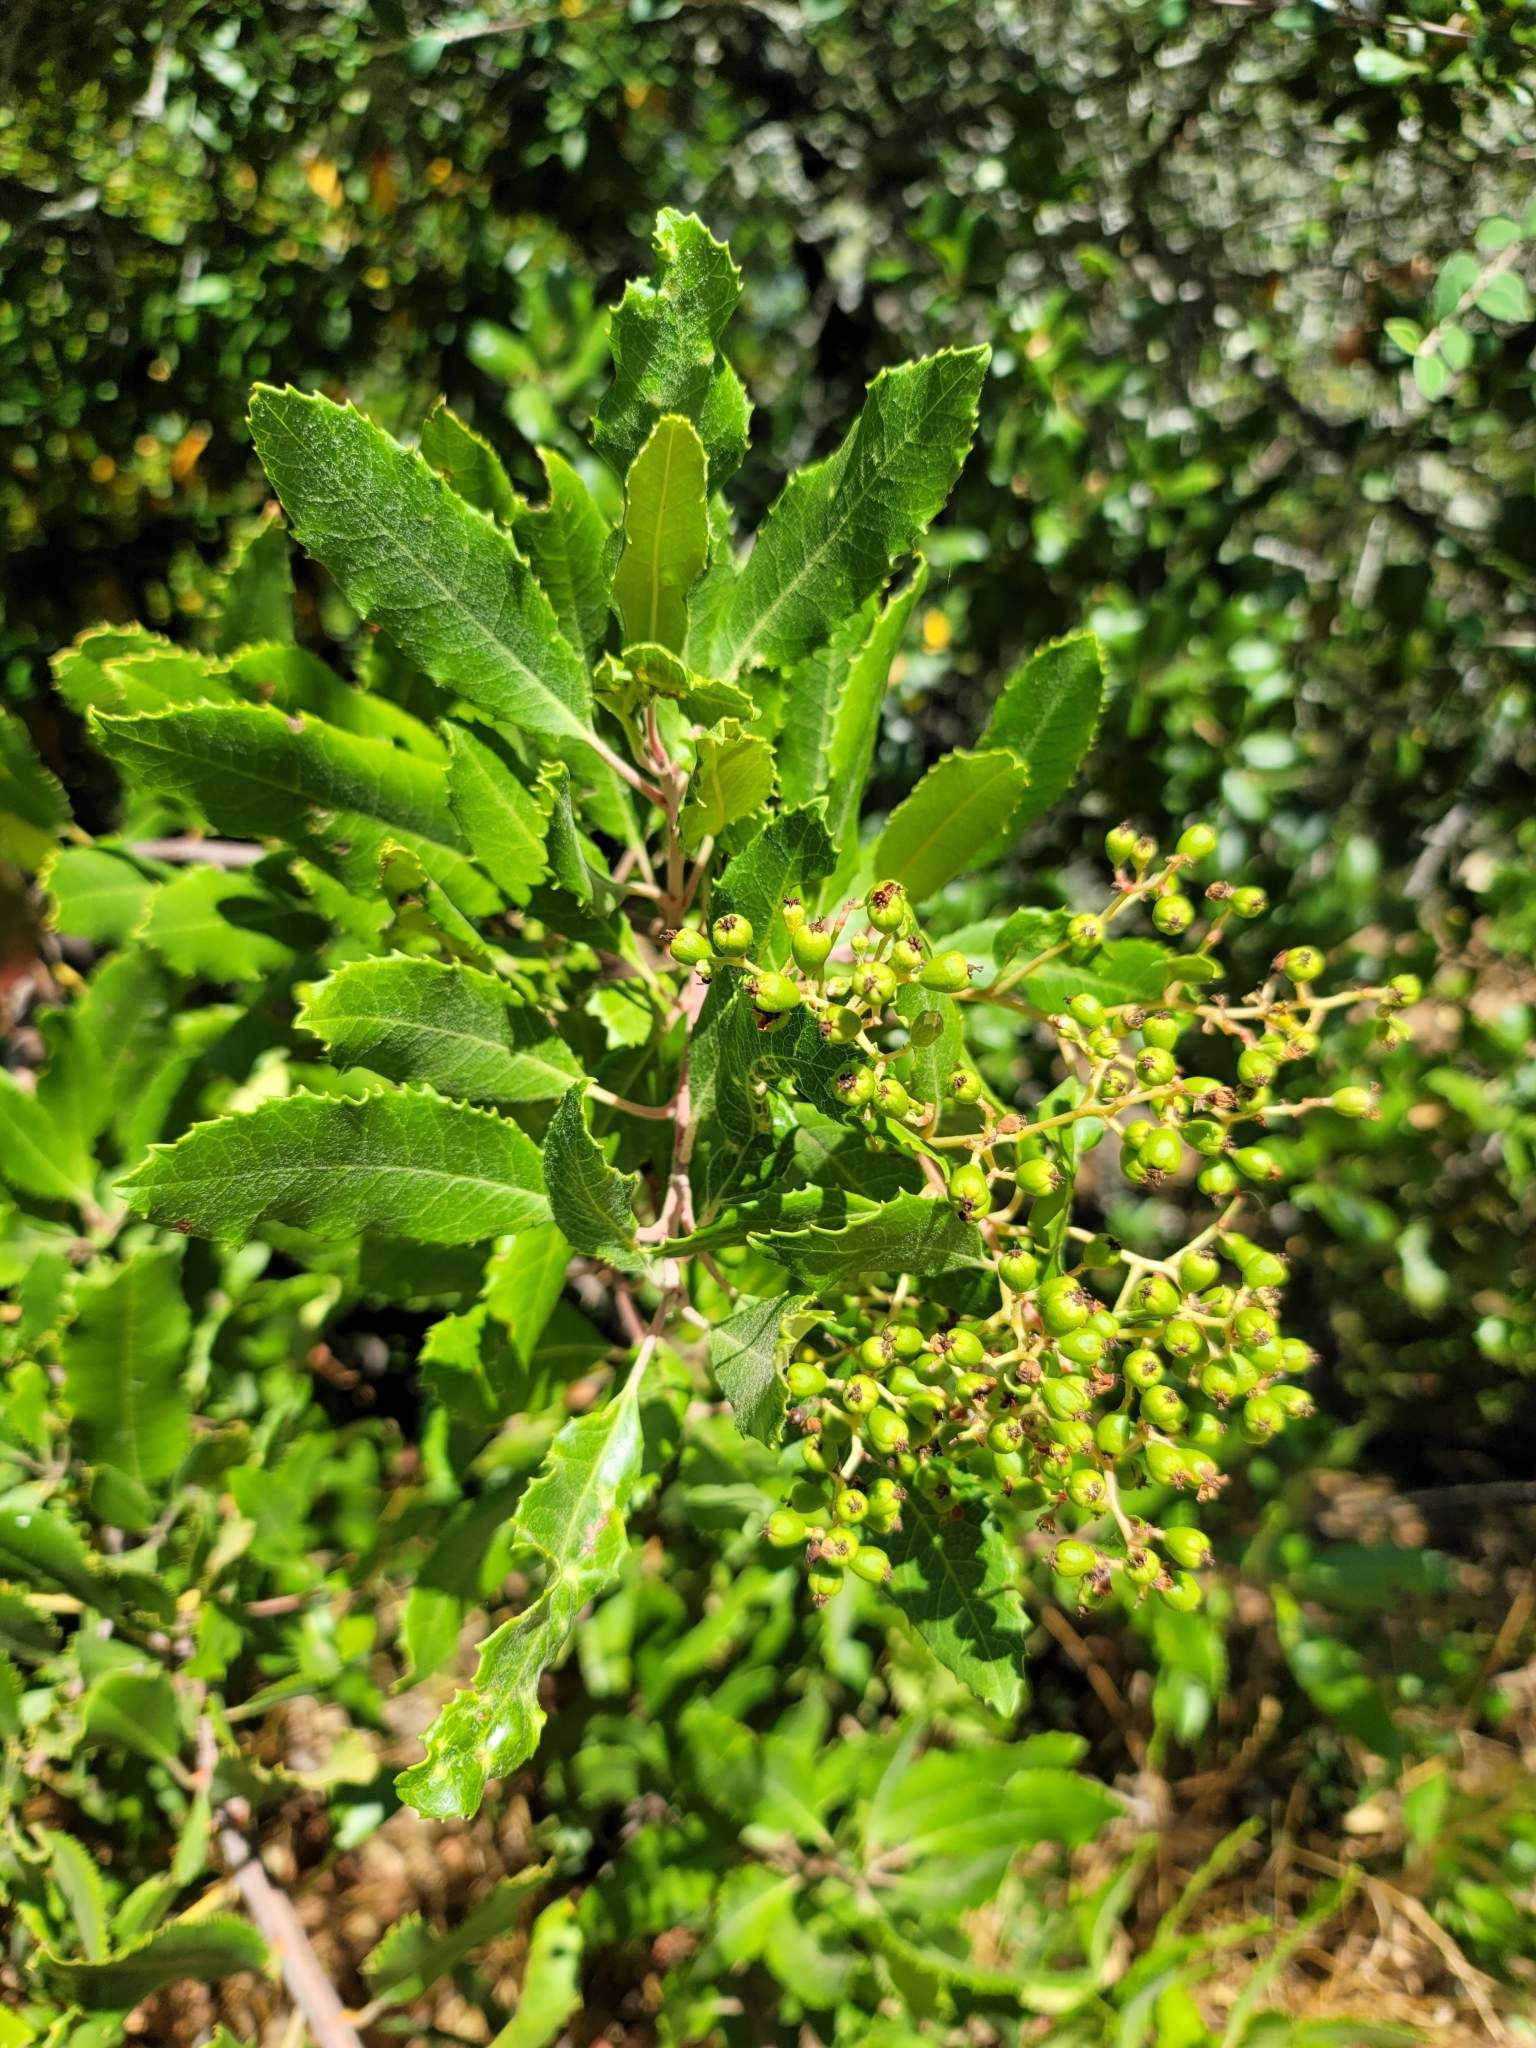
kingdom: Plantae
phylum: Tracheophyta
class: Magnoliopsida
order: Rosales
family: Rosaceae
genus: Heteromeles
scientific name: Heteromeles arbutifolia
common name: California-holly
